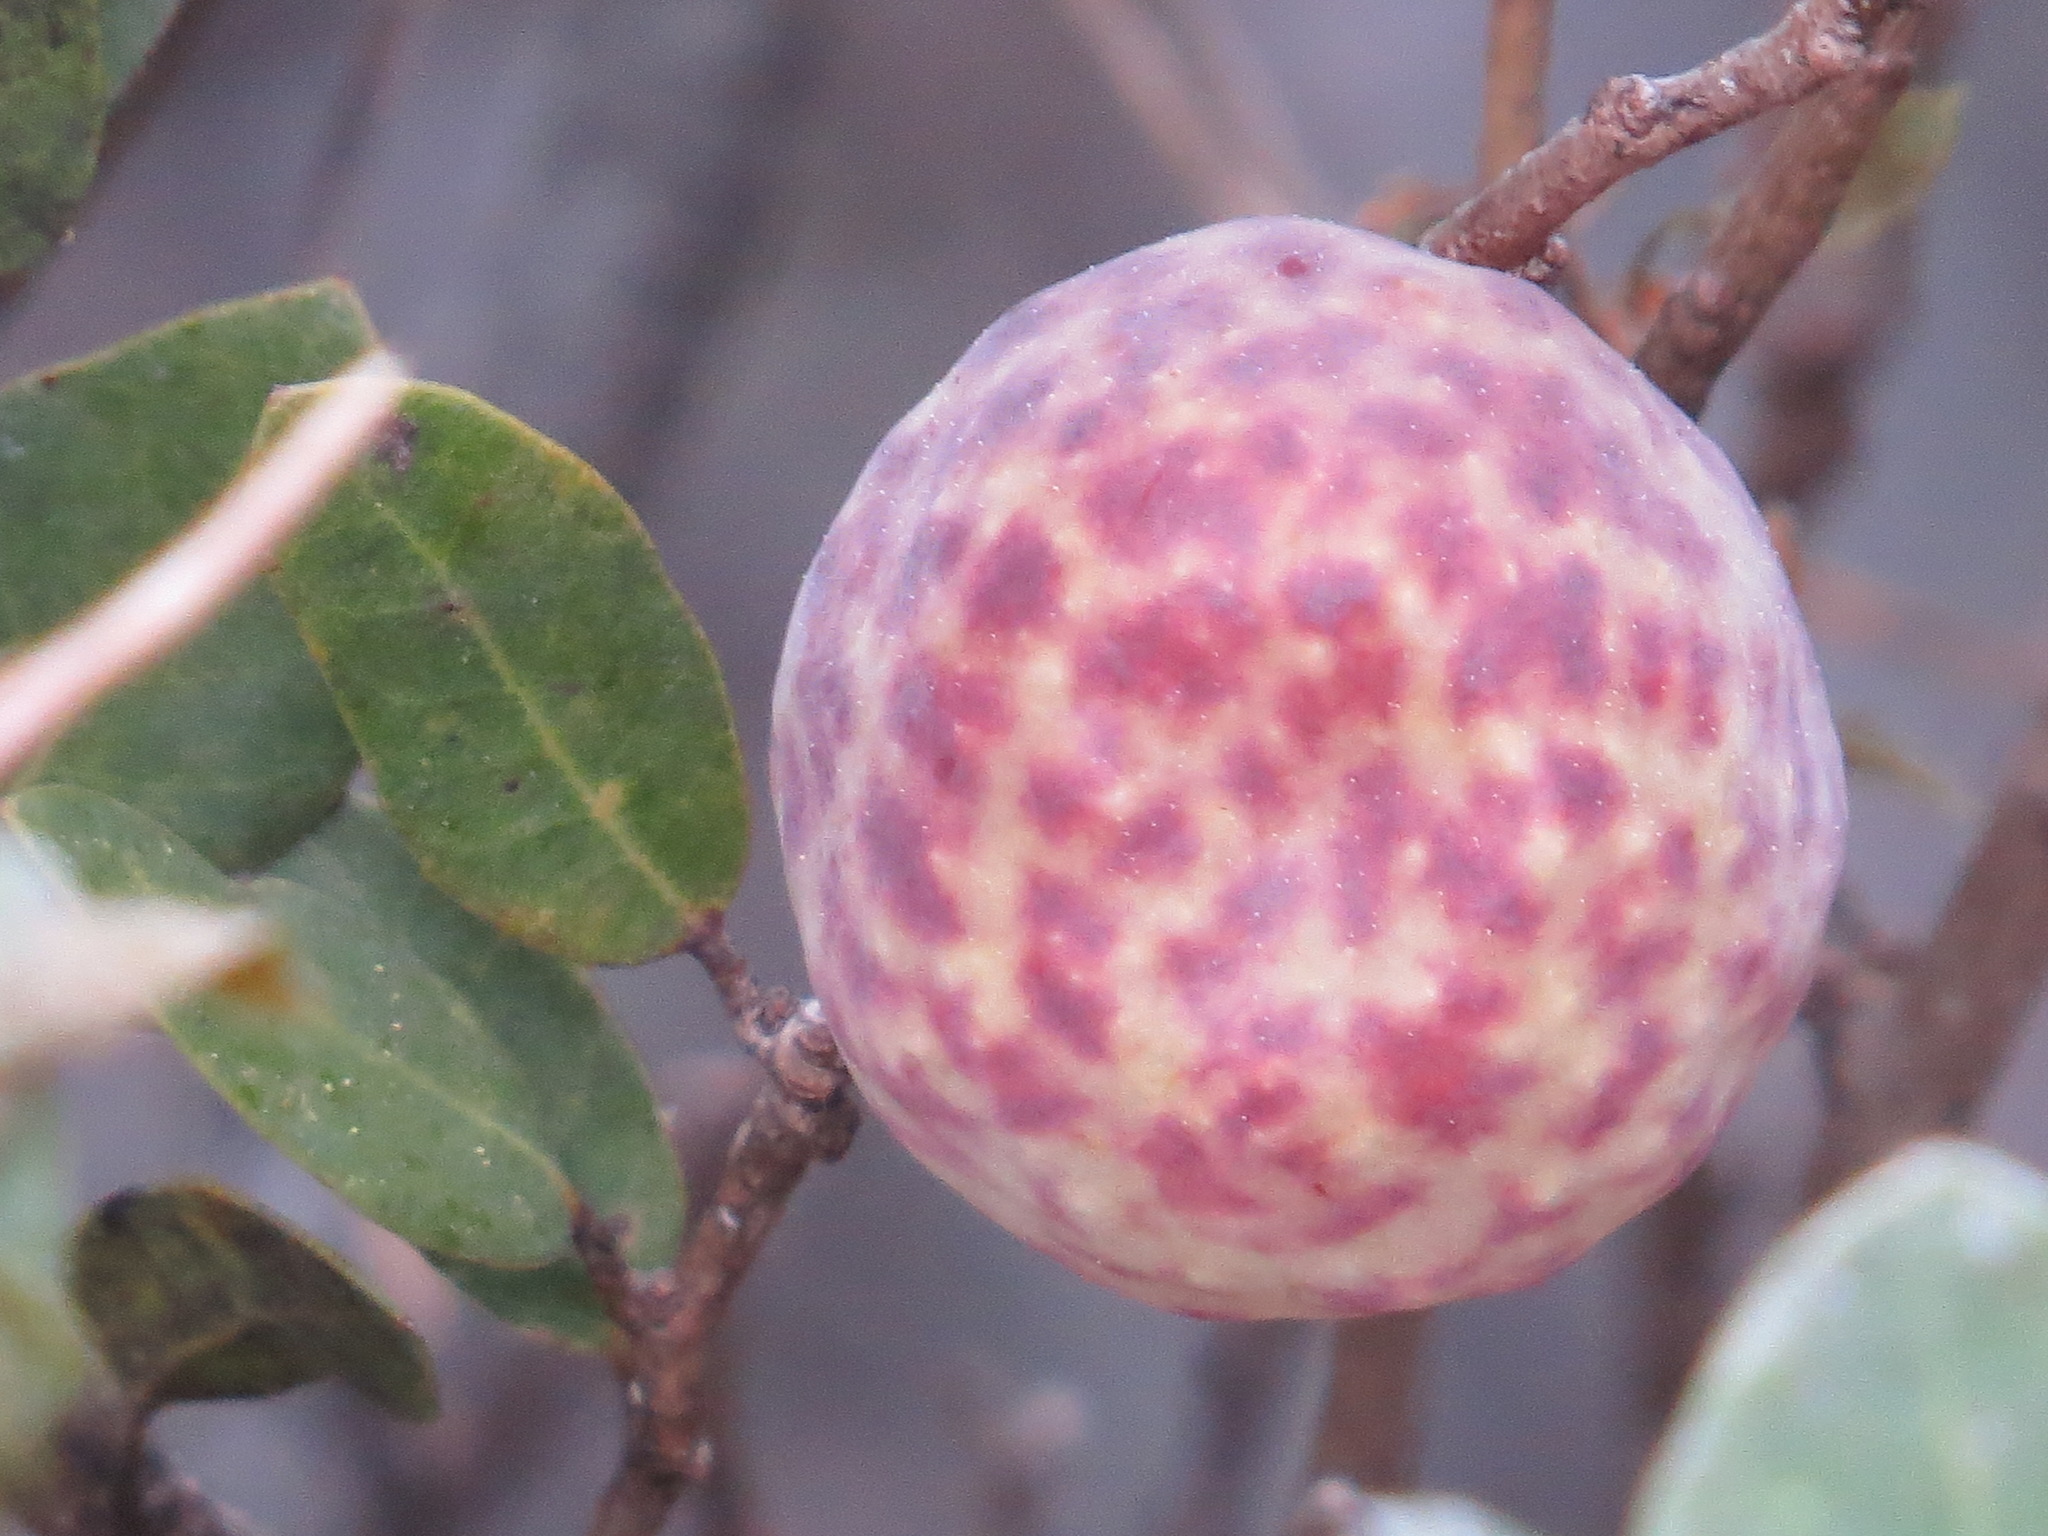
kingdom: Animalia
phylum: Arthropoda
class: Insecta
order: Hymenoptera
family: Cynipidae
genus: Andricus
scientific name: Andricus
